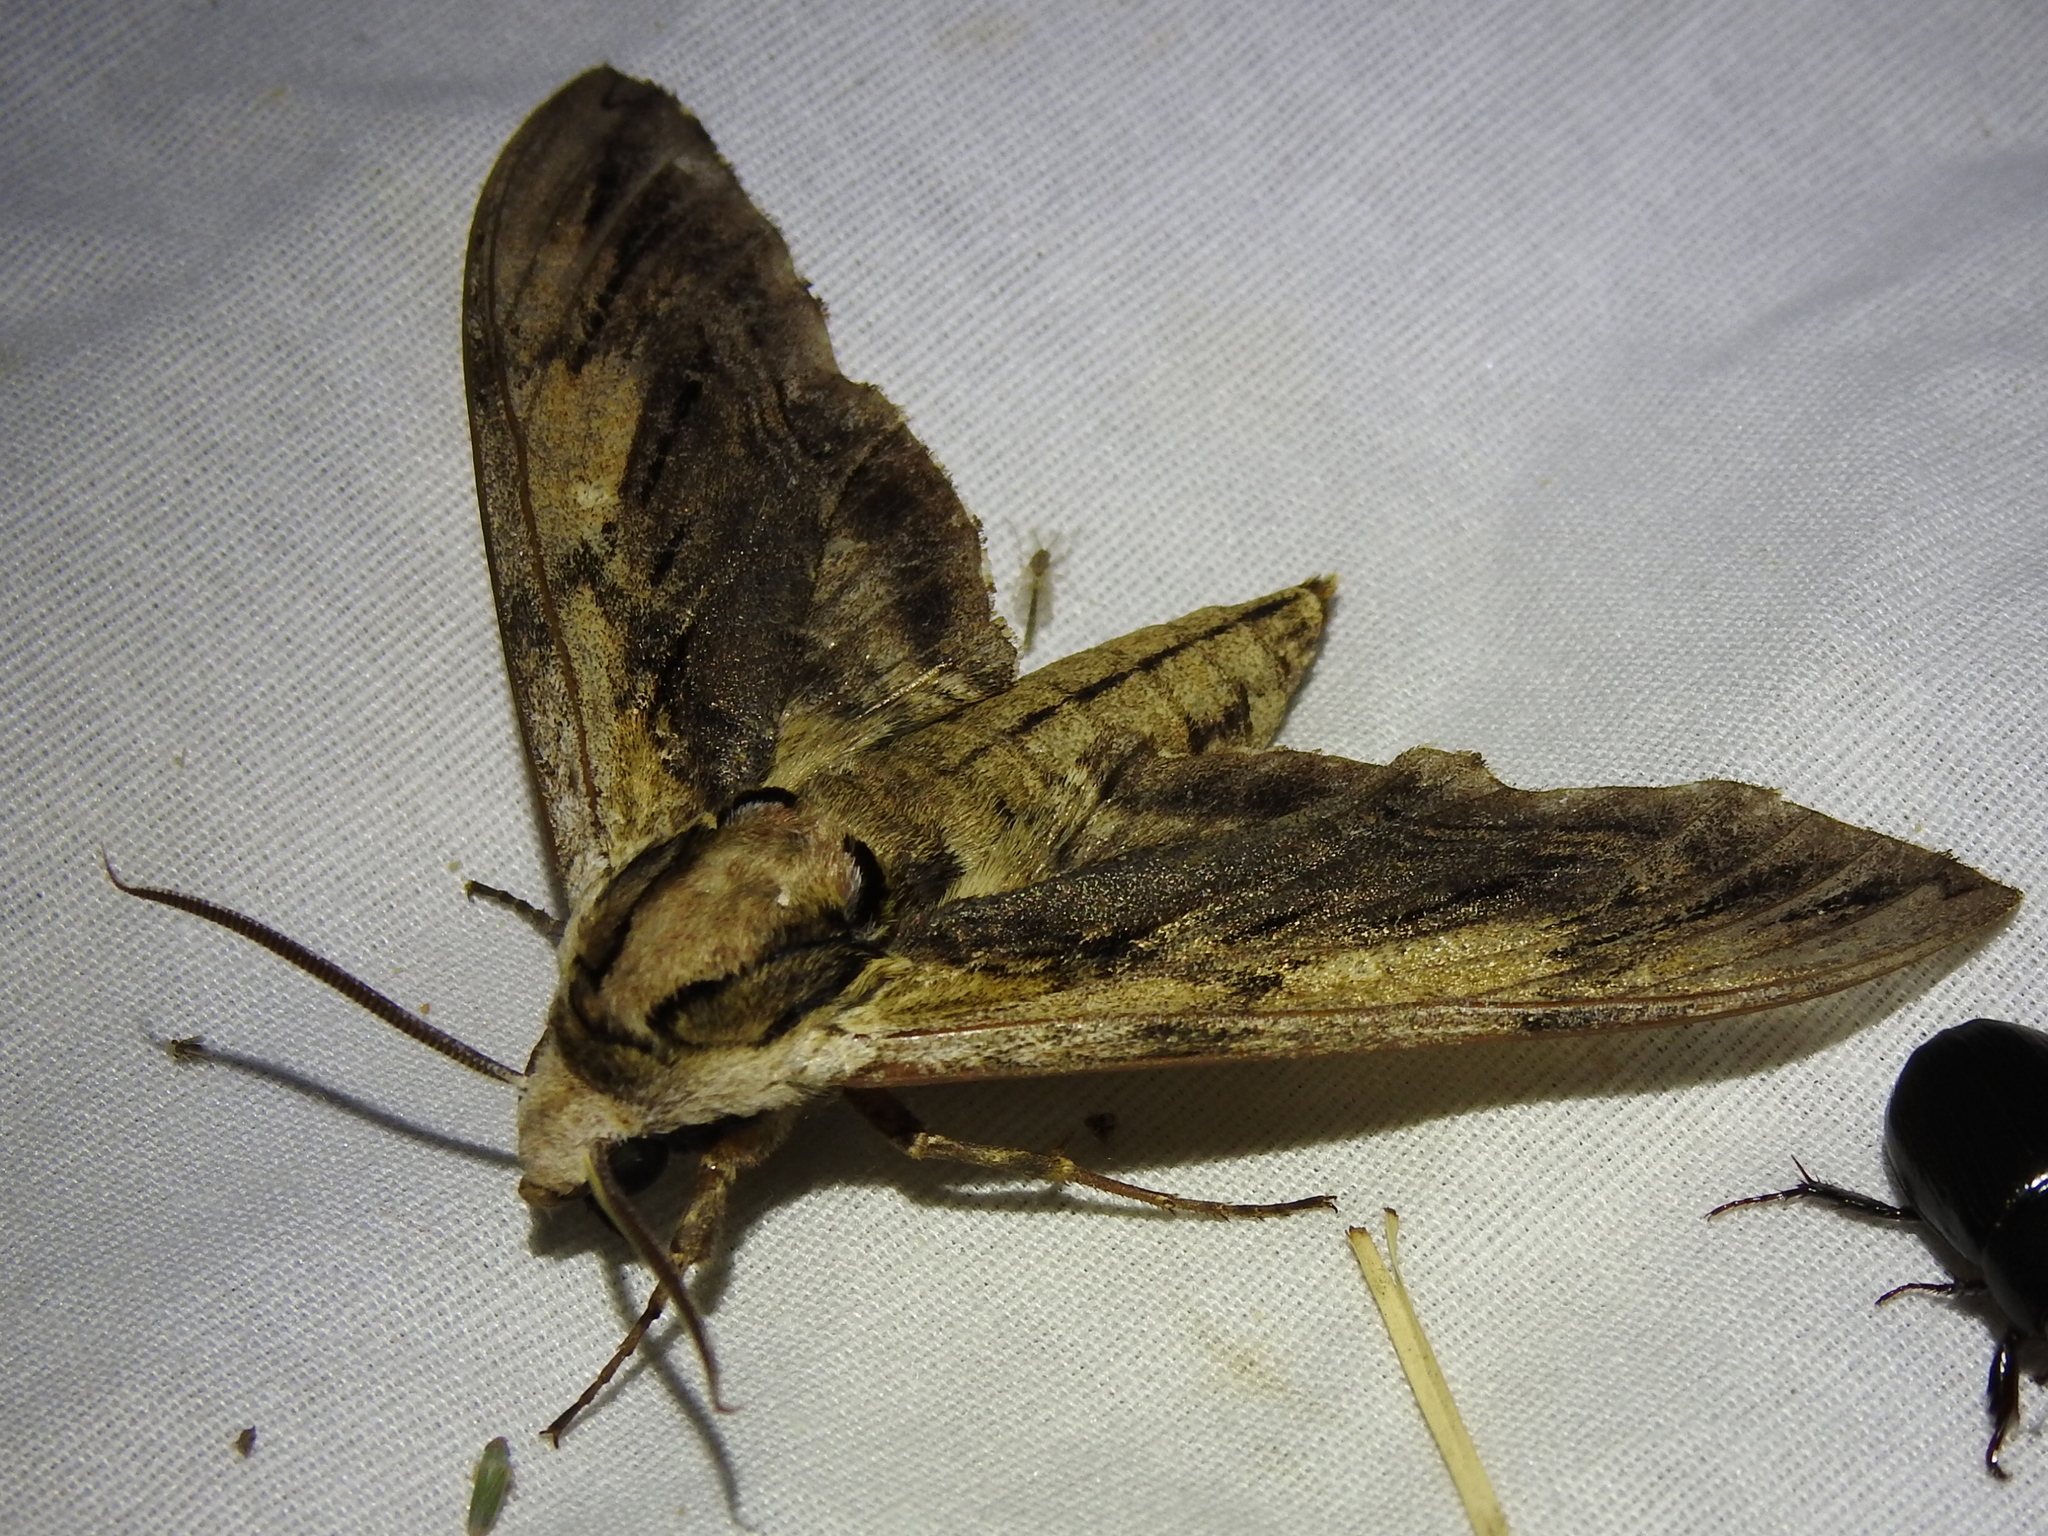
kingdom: Animalia
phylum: Arthropoda
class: Insecta
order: Lepidoptera
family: Sphingidae
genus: Ceratomia
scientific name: Ceratomia amyntor
